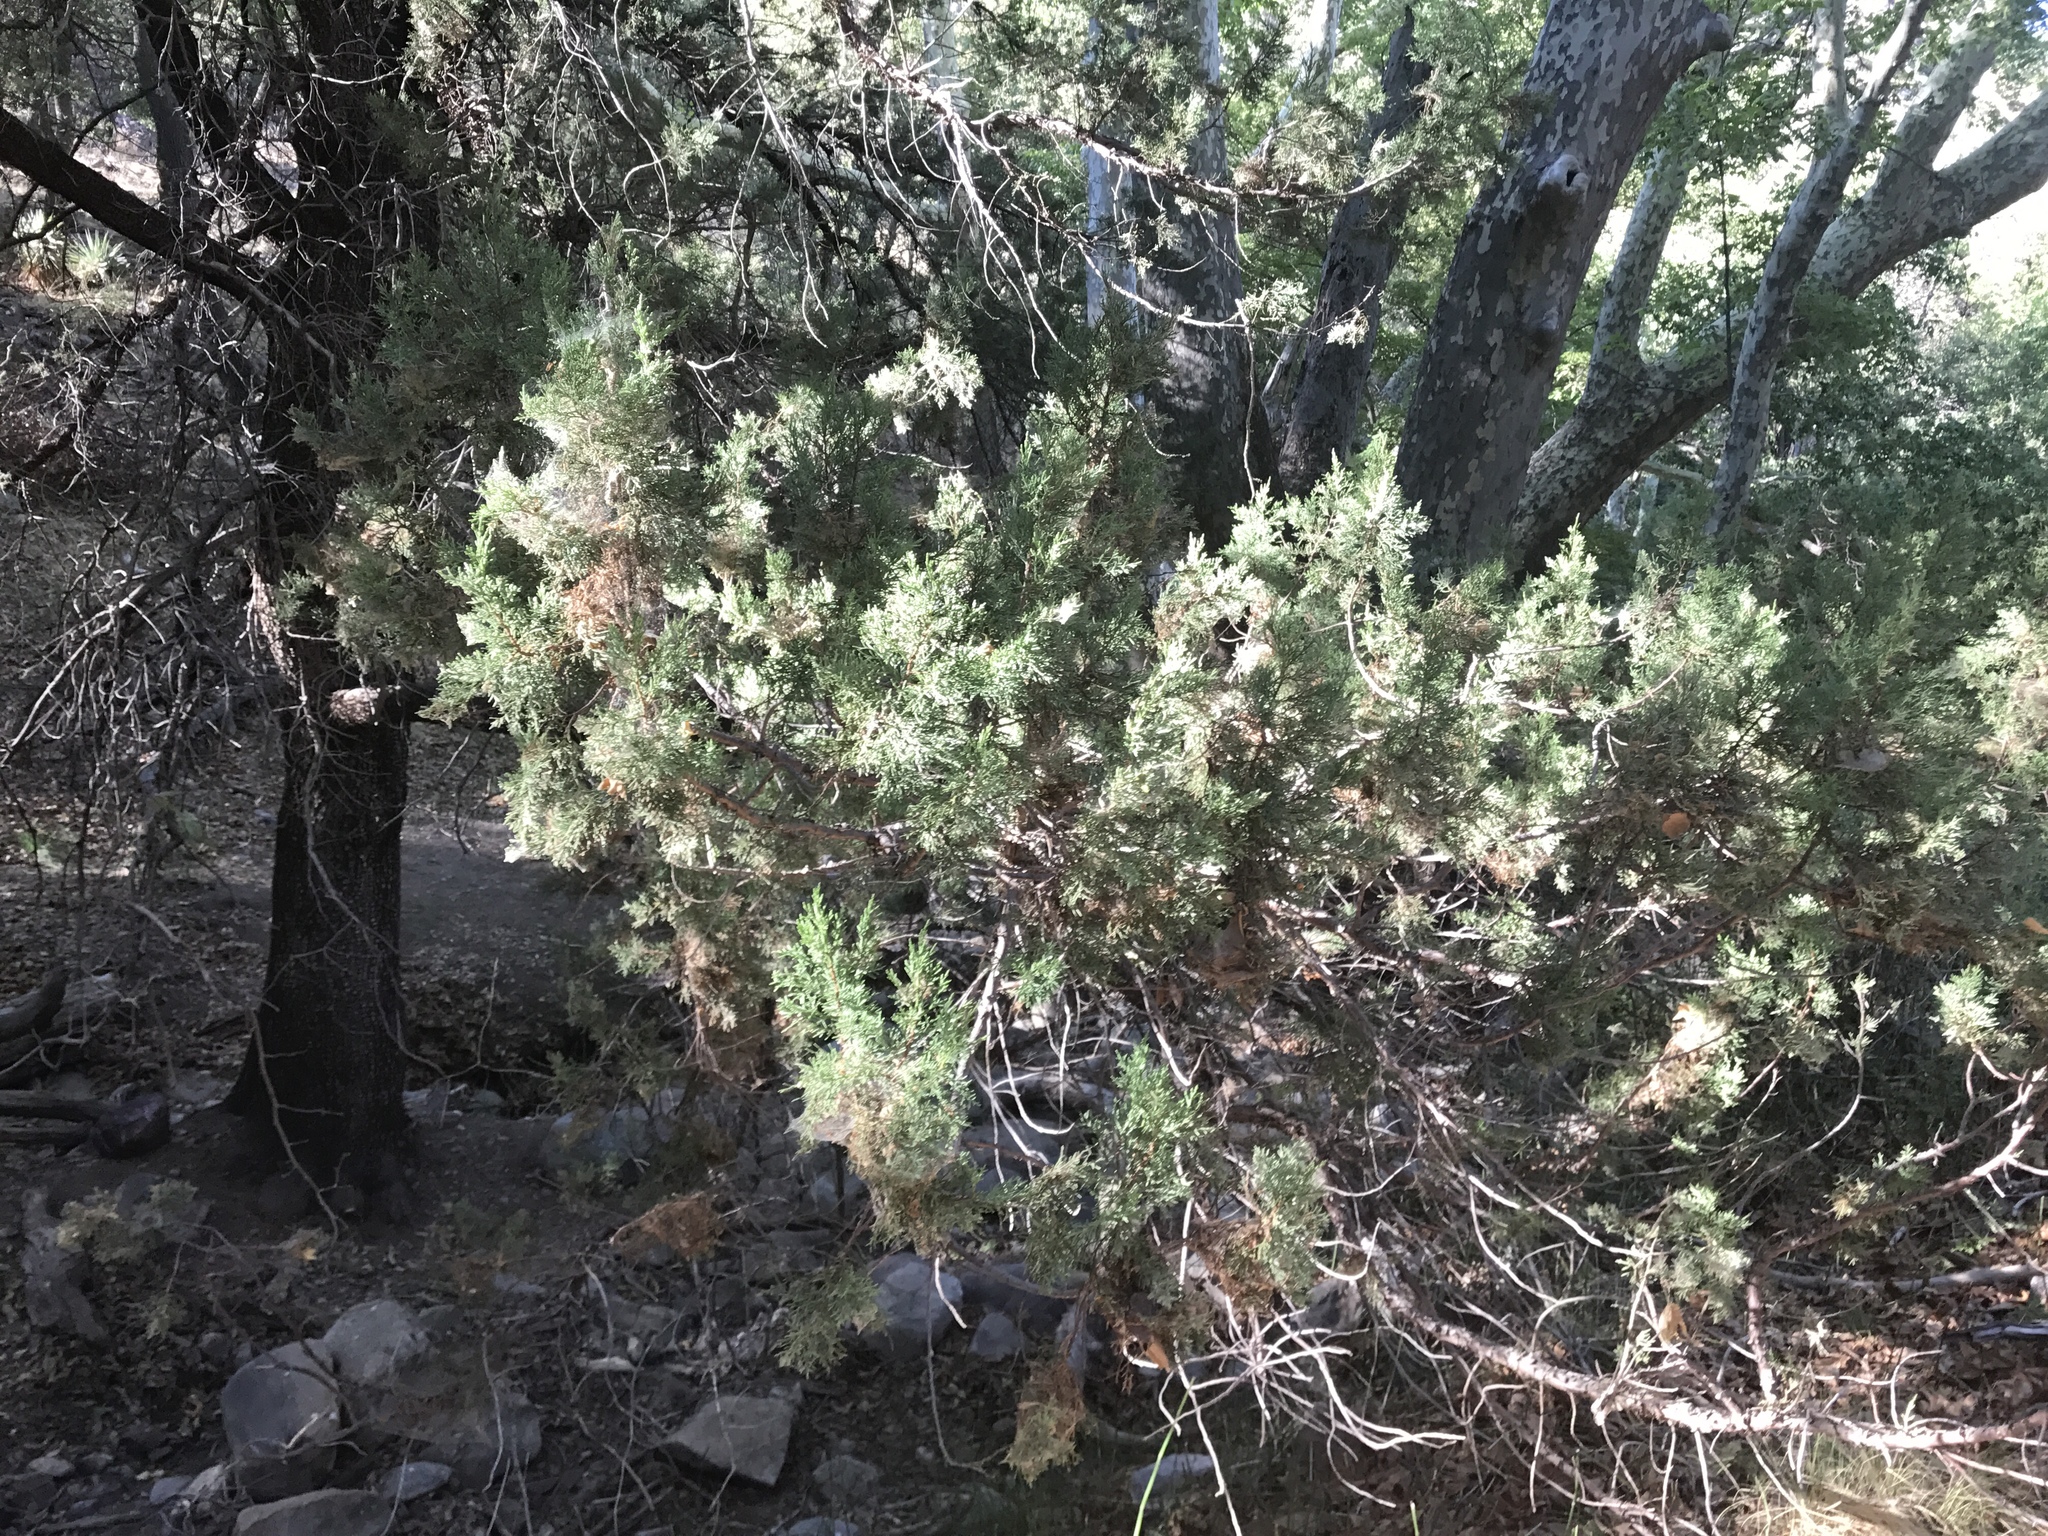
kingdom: Plantae
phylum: Tracheophyta
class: Pinopsida
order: Pinales
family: Cupressaceae
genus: Juniperus
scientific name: Juniperus deppeana
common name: Alligator juniper
